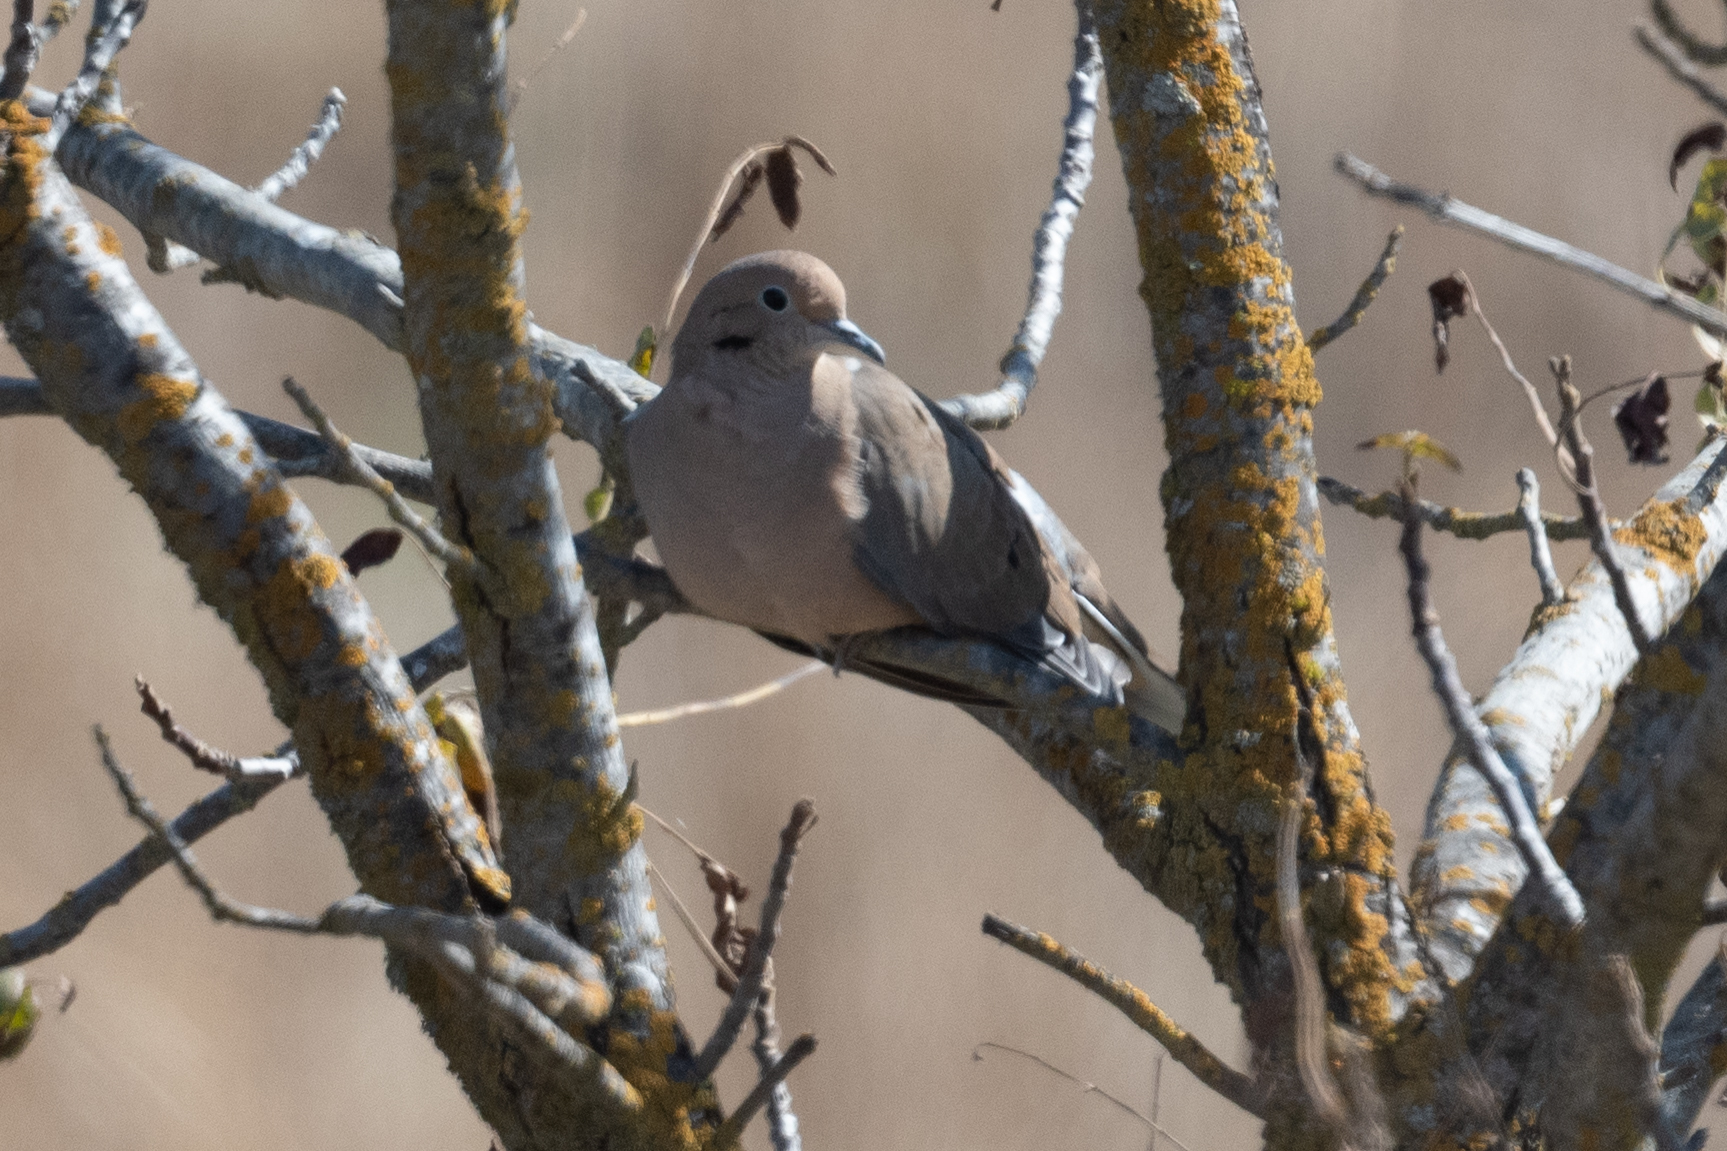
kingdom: Animalia
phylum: Chordata
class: Aves
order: Columbiformes
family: Columbidae
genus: Zenaida
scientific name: Zenaida macroura
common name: Mourning dove
